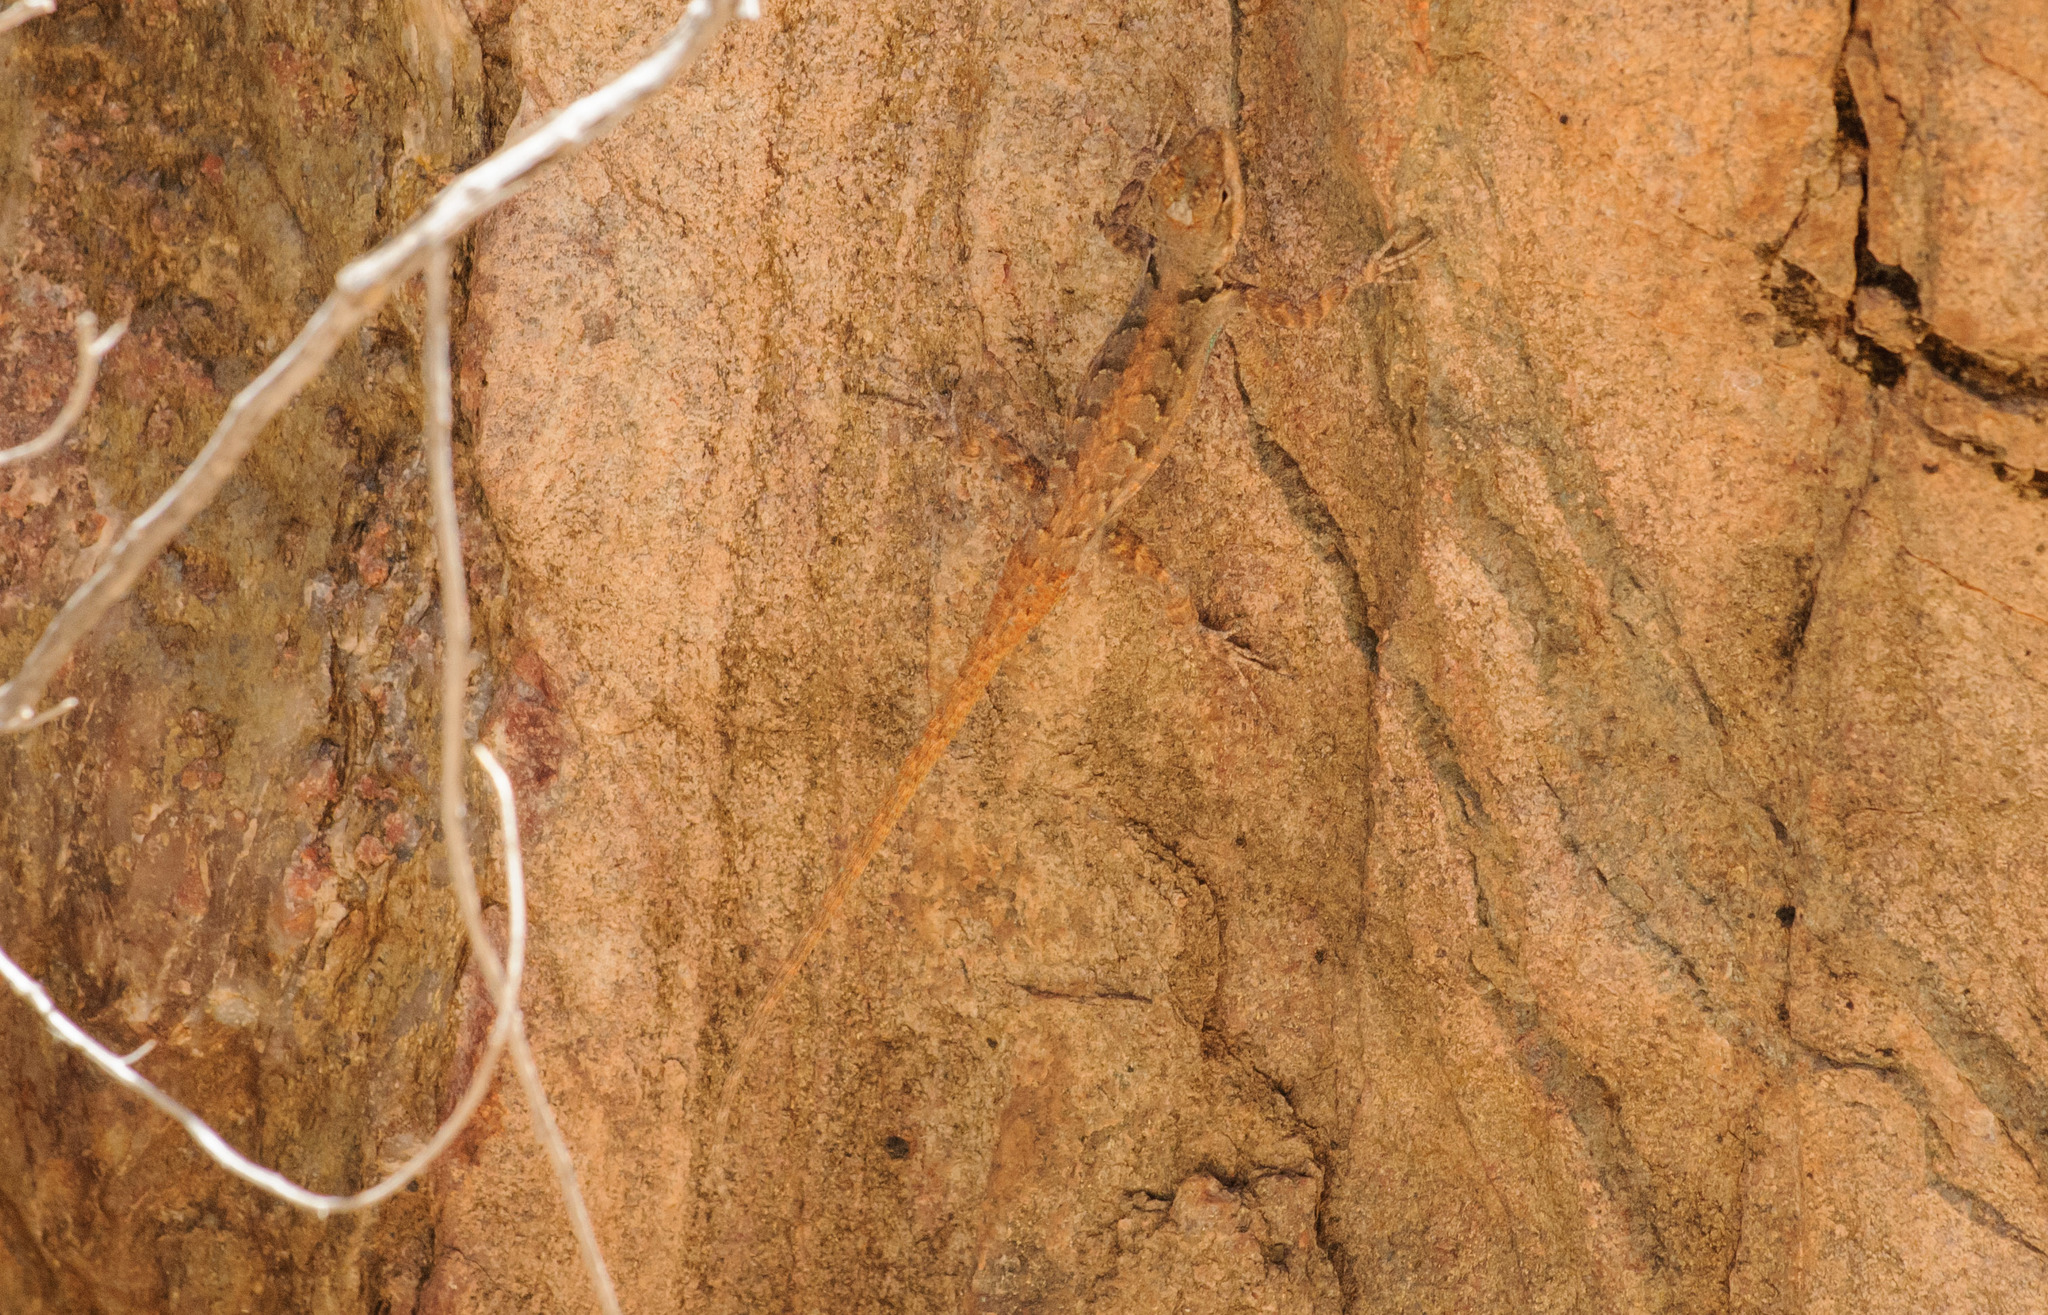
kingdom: Animalia
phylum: Chordata
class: Squamata
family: Phrynosomatidae
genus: Urosaurus
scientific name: Urosaurus ornatus
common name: Ornate tree lizard
